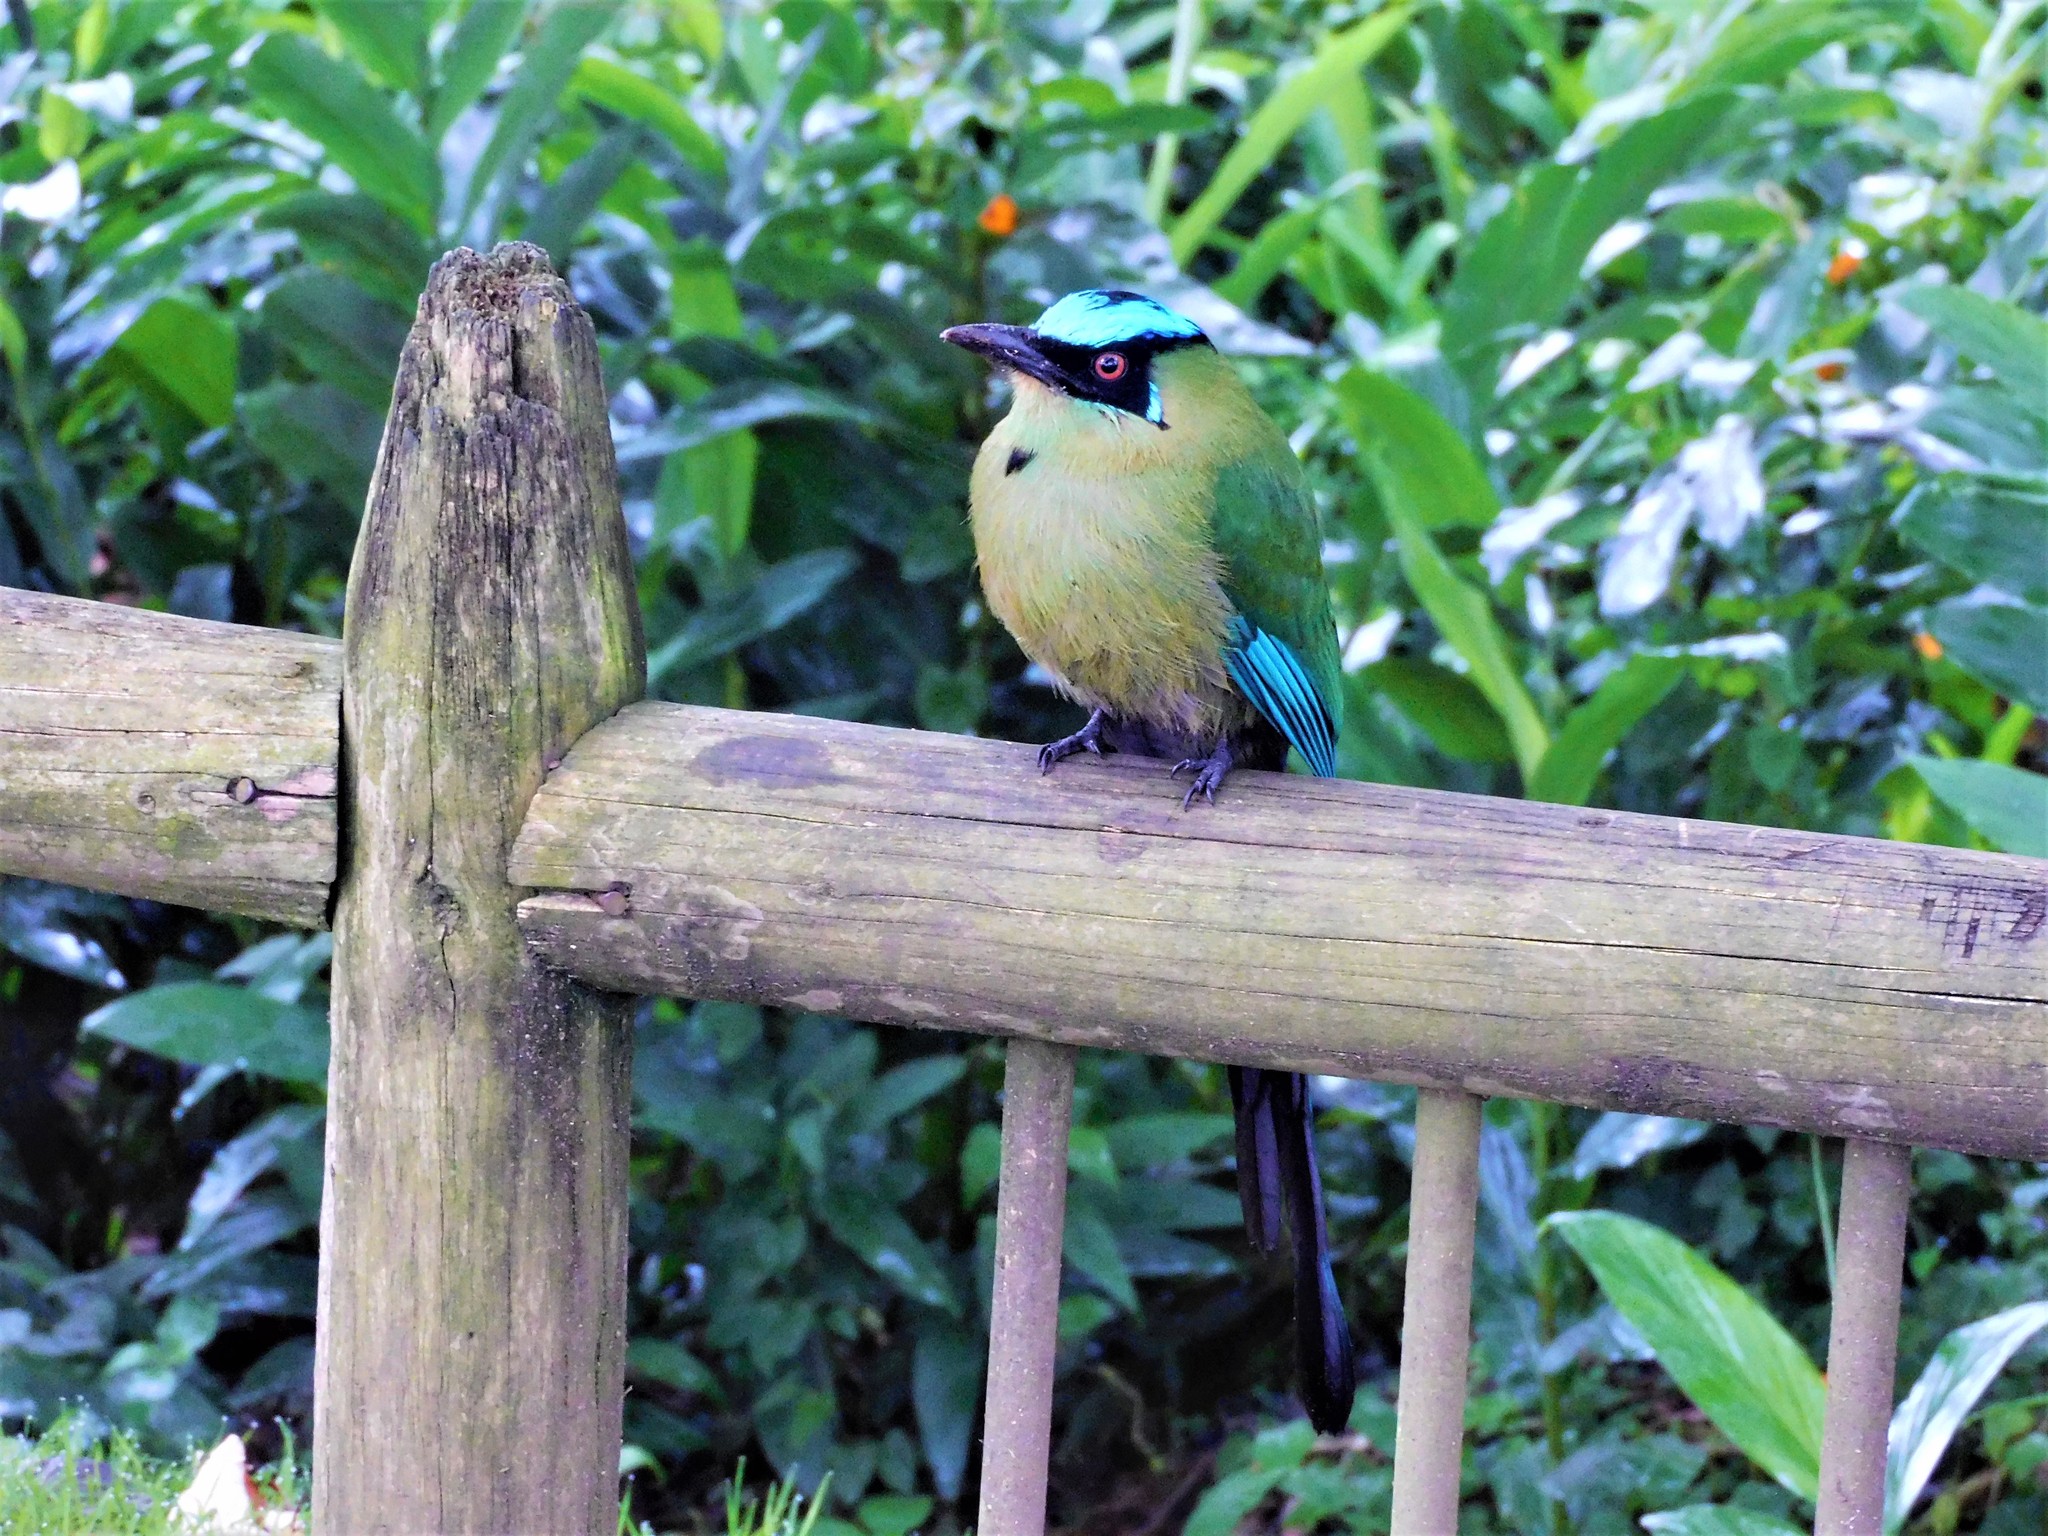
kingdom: Animalia
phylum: Chordata
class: Aves
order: Coraciiformes
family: Momotidae
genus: Momotus
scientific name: Momotus aequatorialis
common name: Andean motmot
